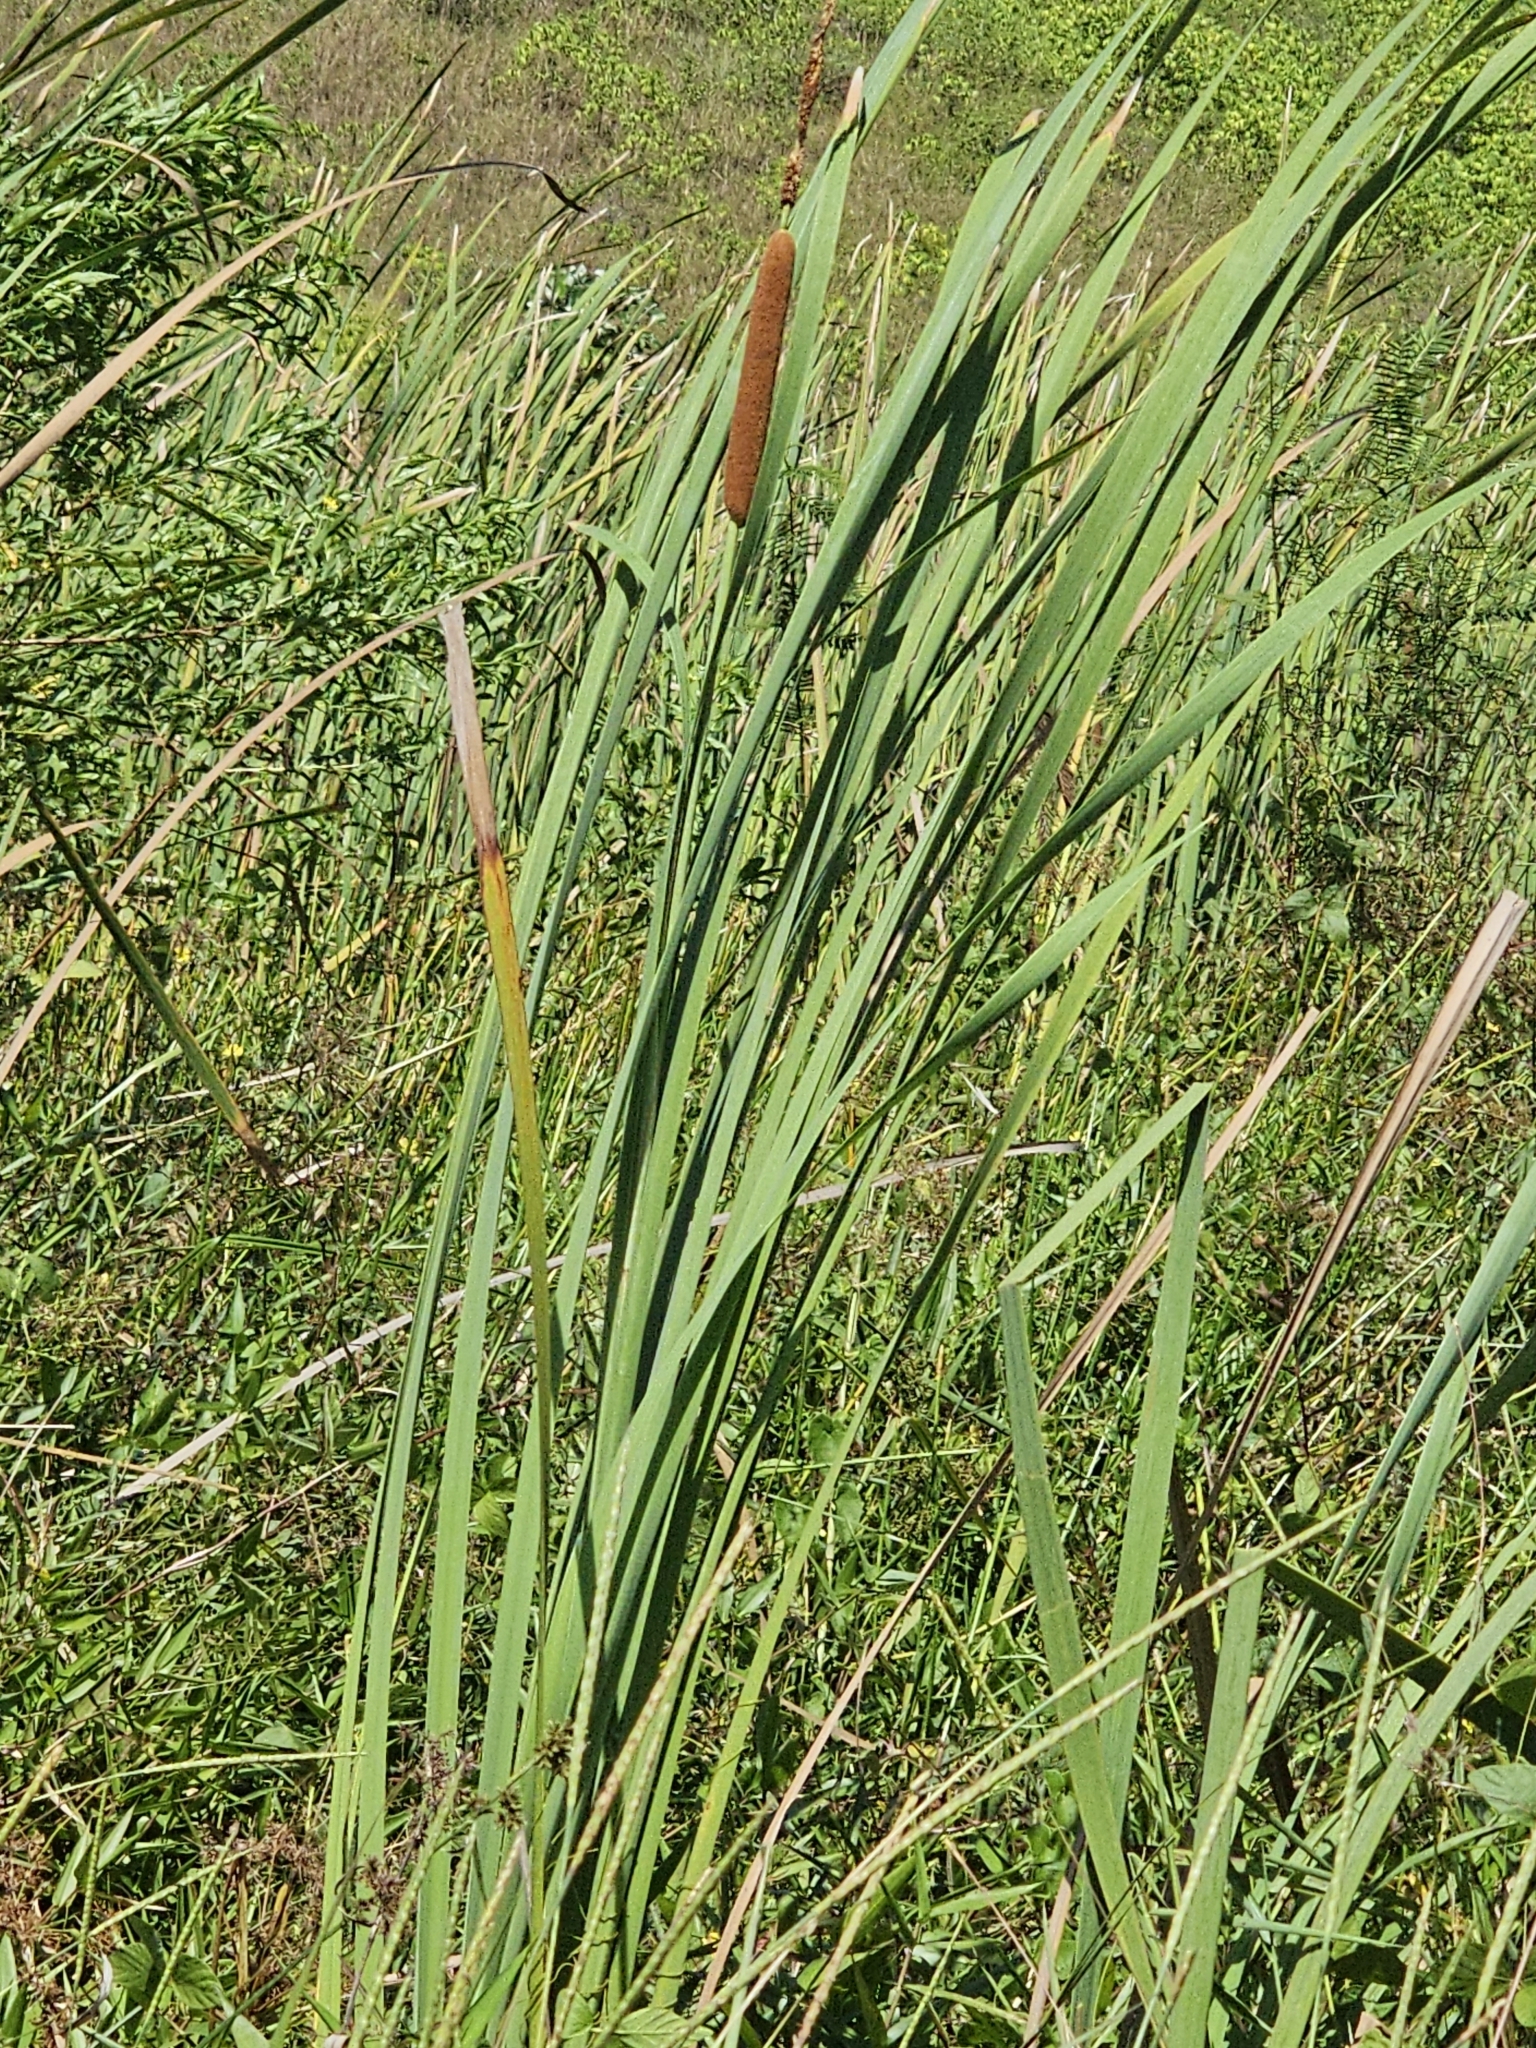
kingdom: Plantae
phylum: Tracheophyta
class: Liliopsida
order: Poales
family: Typhaceae
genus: Typha
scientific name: Typha domingensis
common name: Southern cattail
